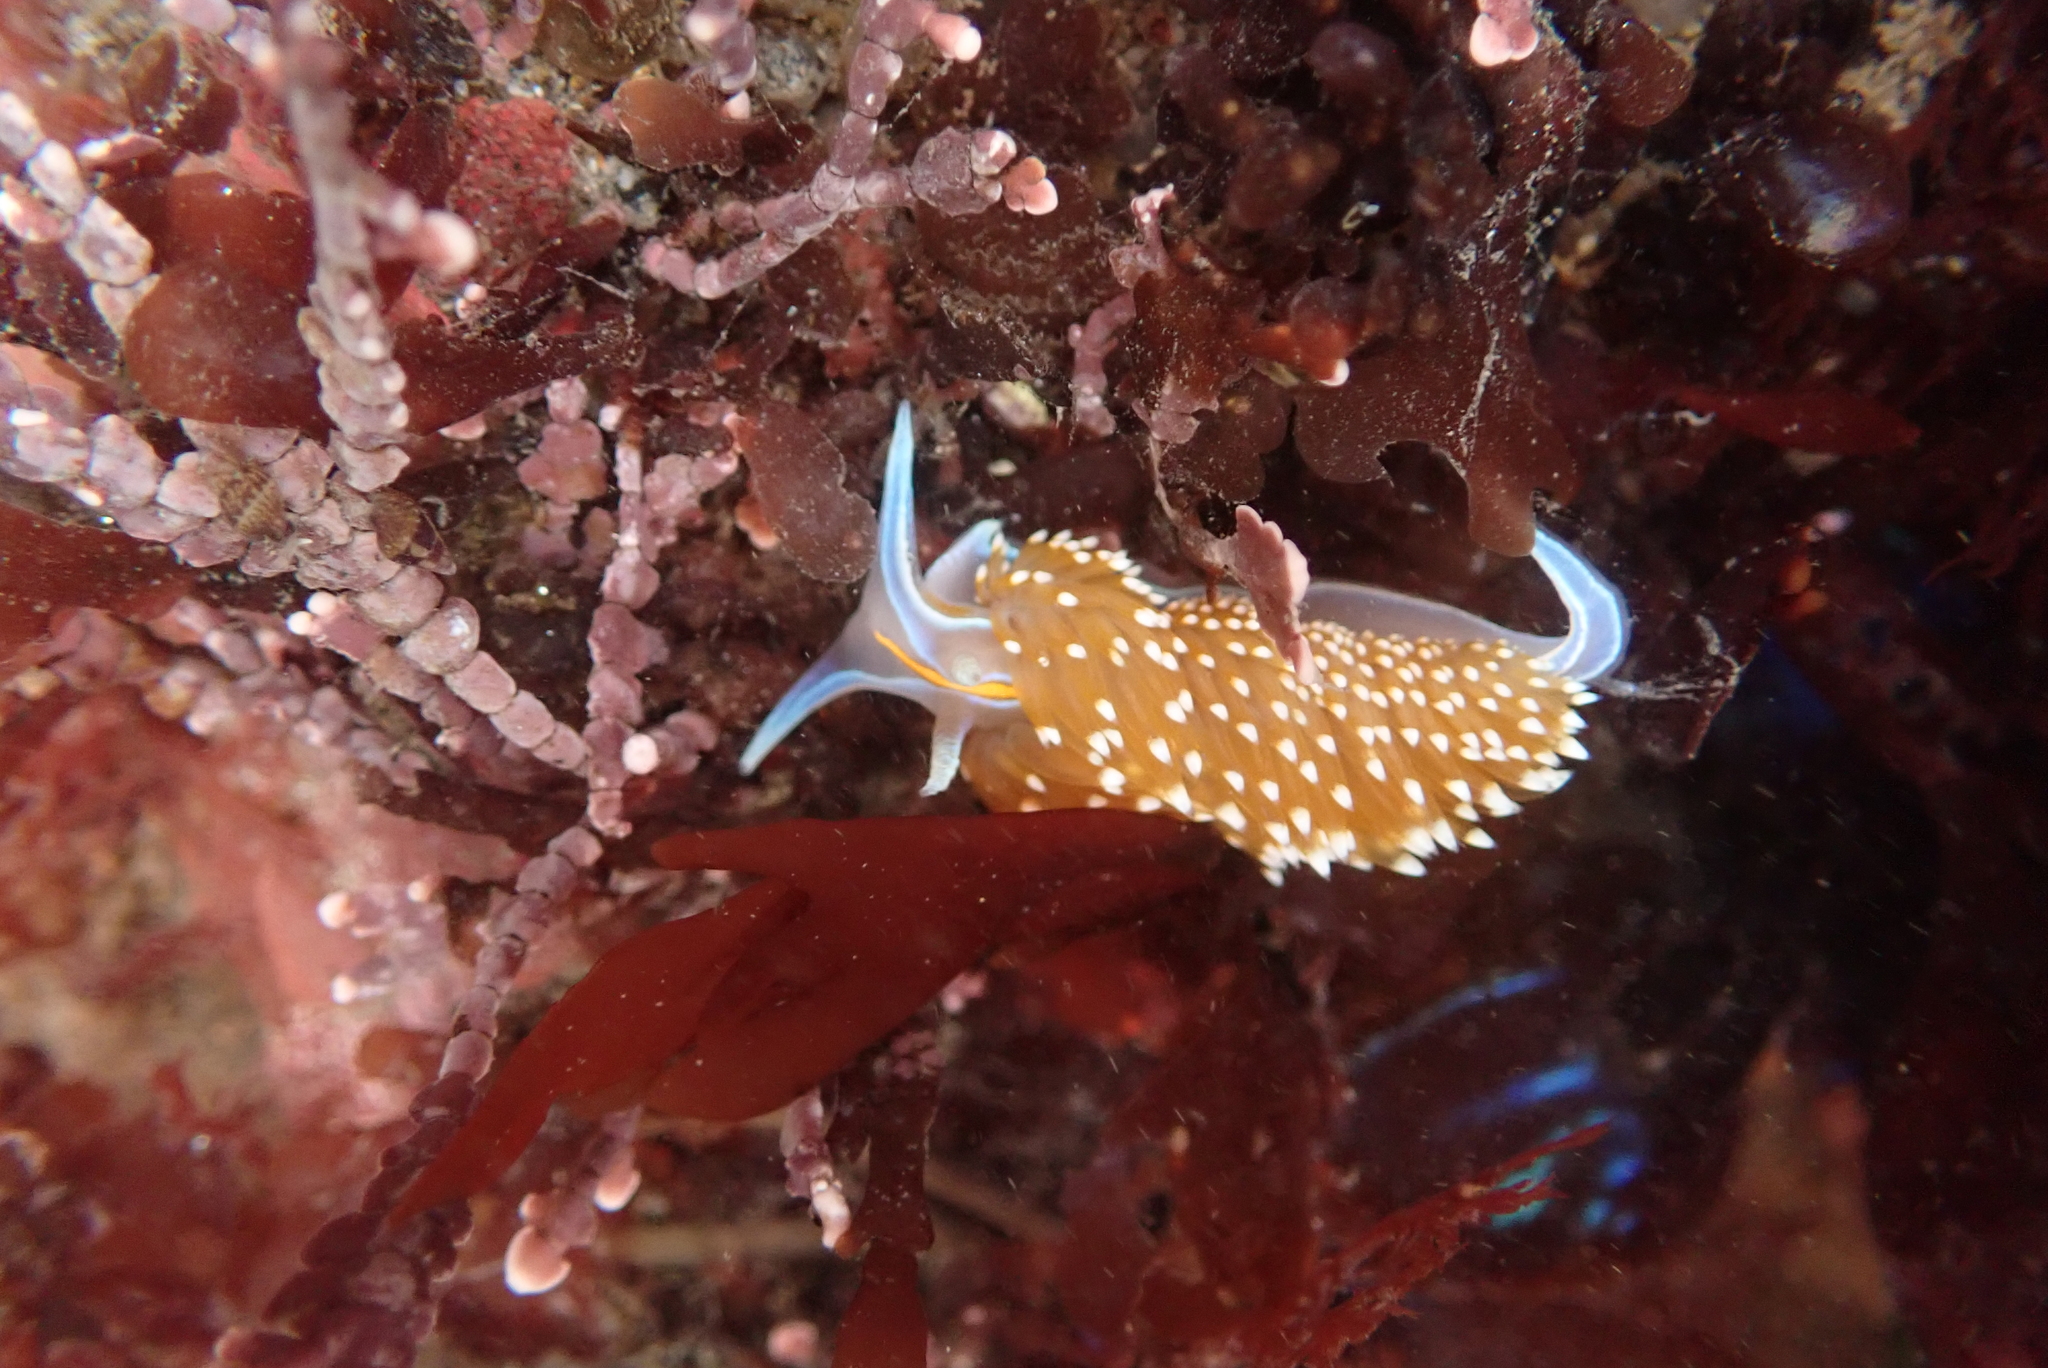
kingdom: Animalia
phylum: Mollusca
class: Gastropoda
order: Nudibranchia
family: Myrrhinidae
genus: Hermissenda
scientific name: Hermissenda opalescens
